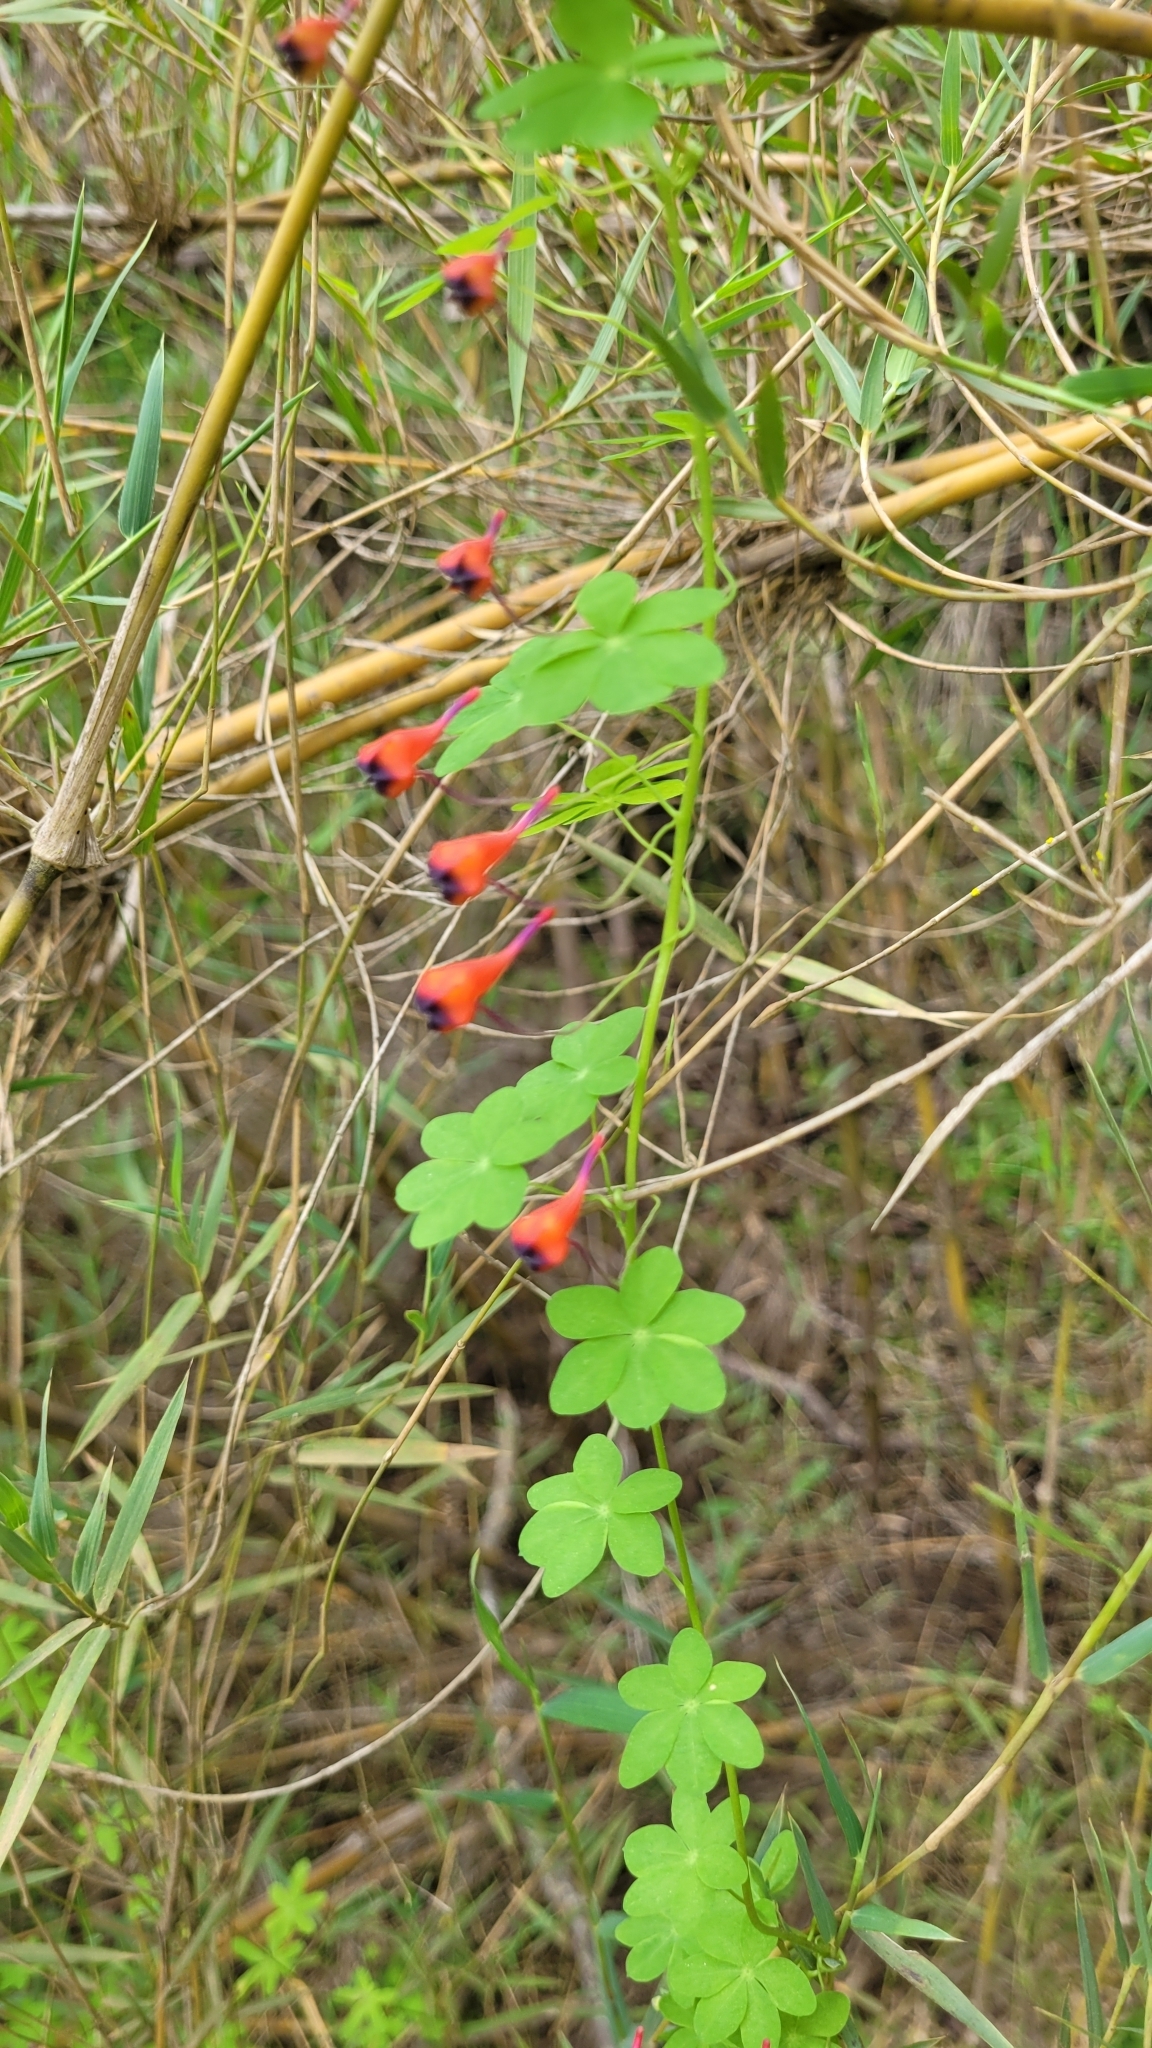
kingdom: Plantae
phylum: Tracheophyta
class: Magnoliopsida
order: Brassicales
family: Tropaeolaceae
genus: Tropaeolum
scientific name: Tropaeolum tricolor
